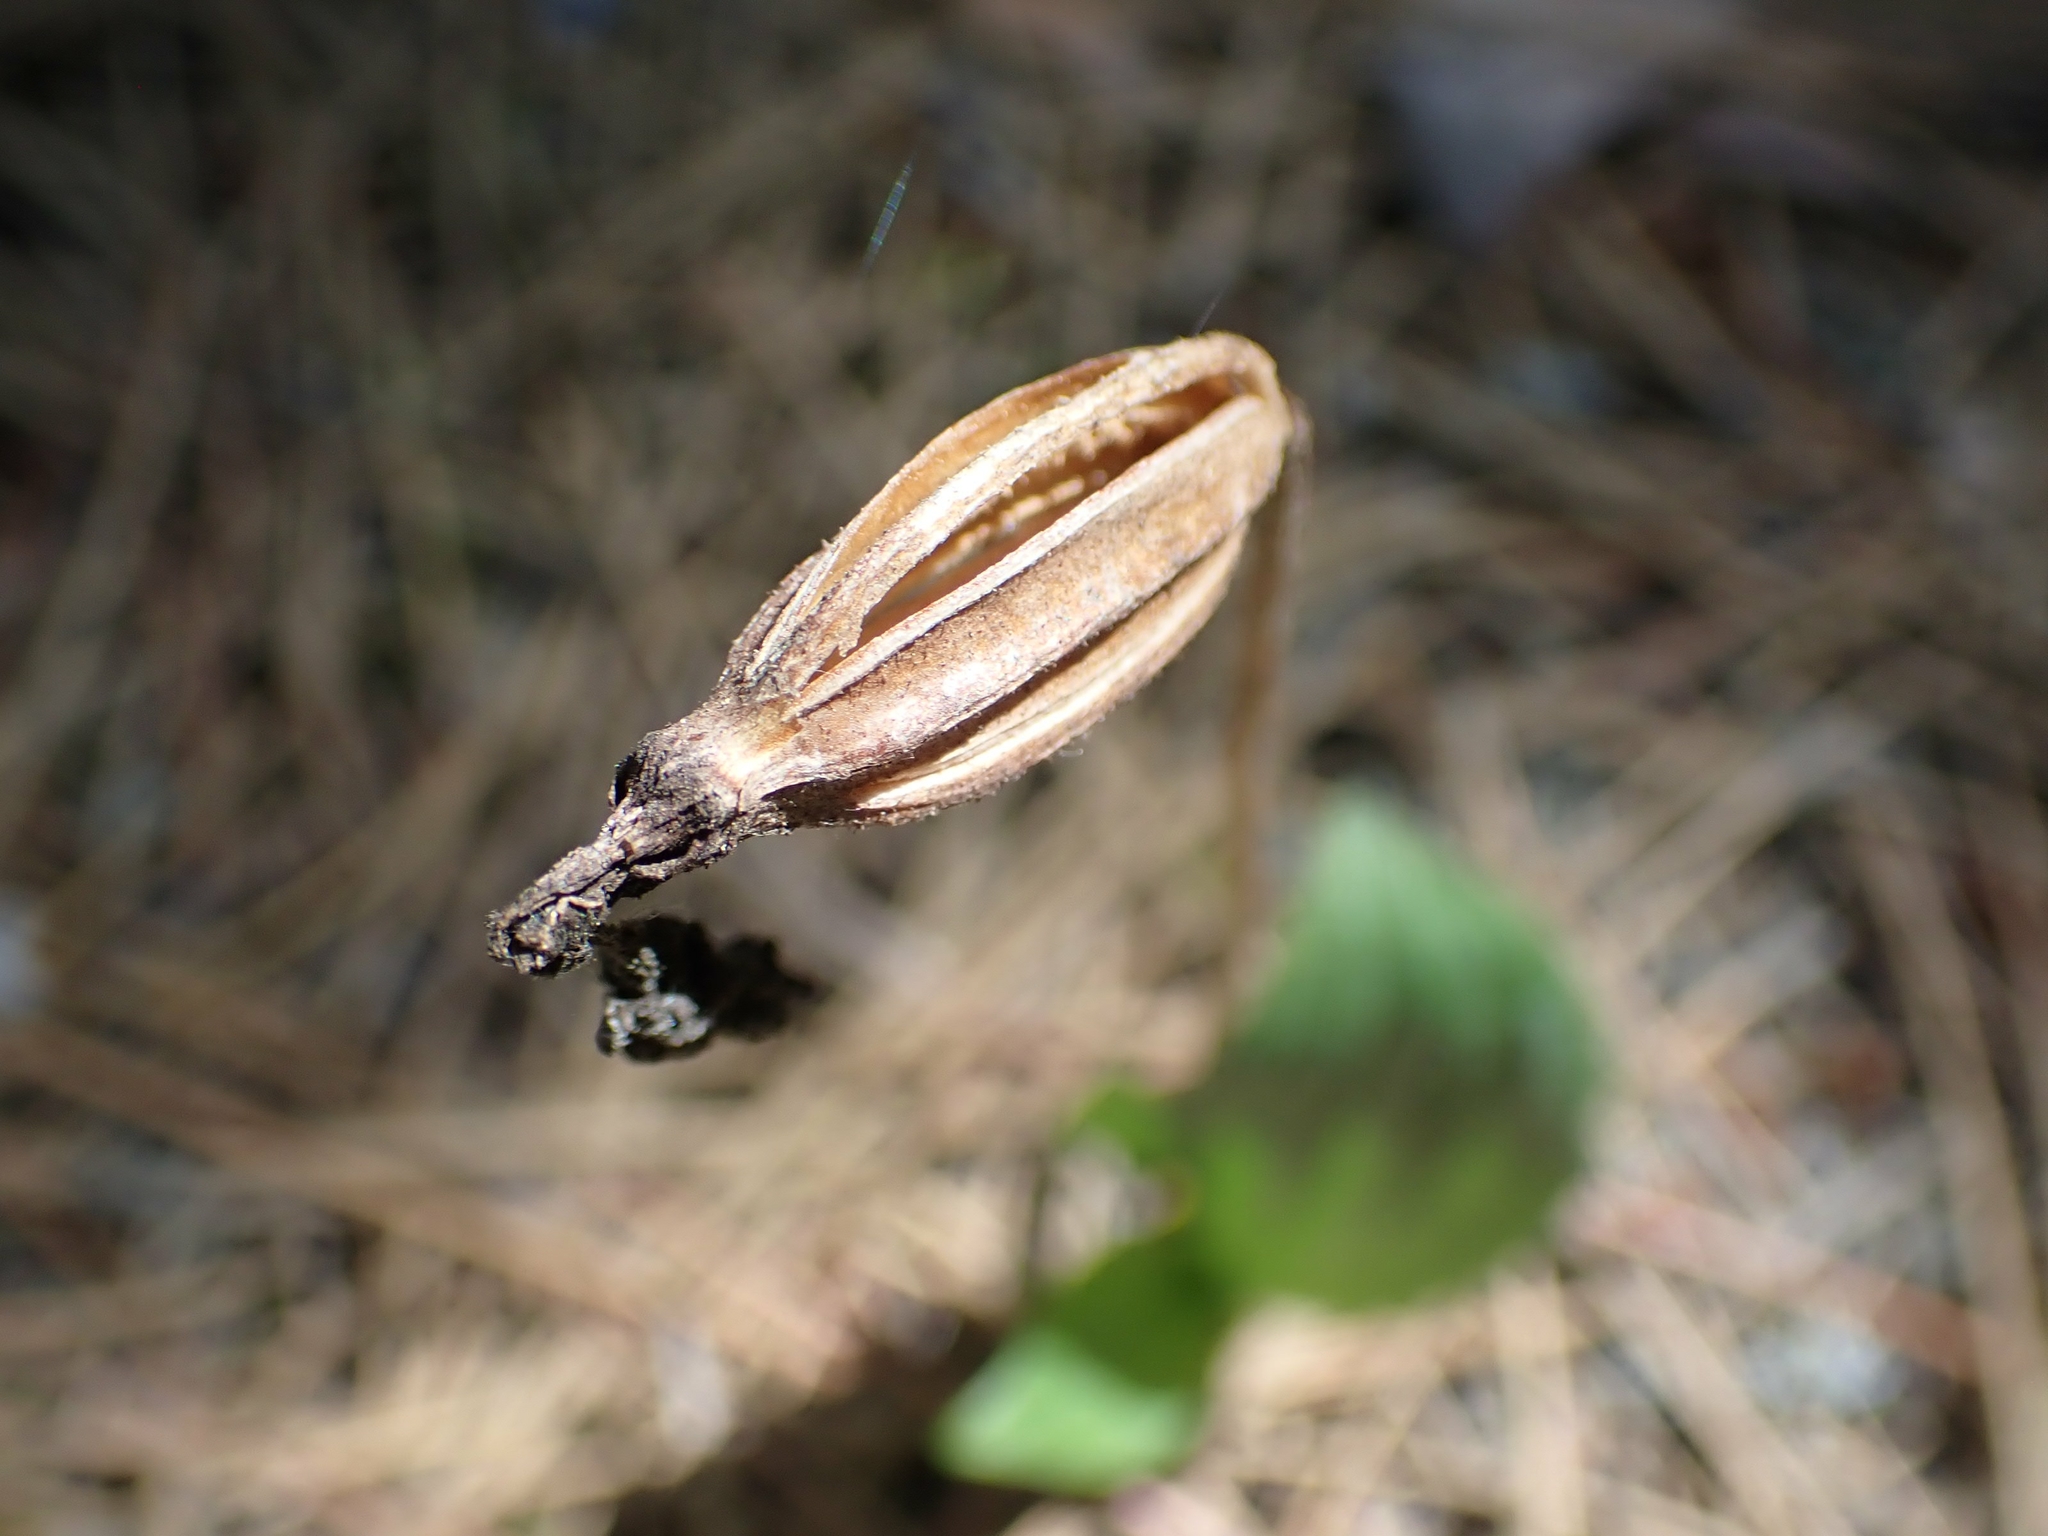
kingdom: Plantae
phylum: Tracheophyta
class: Liliopsida
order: Asparagales
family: Orchidaceae
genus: Cypripedium
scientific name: Cypripedium acaule
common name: Pink lady's-slipper
